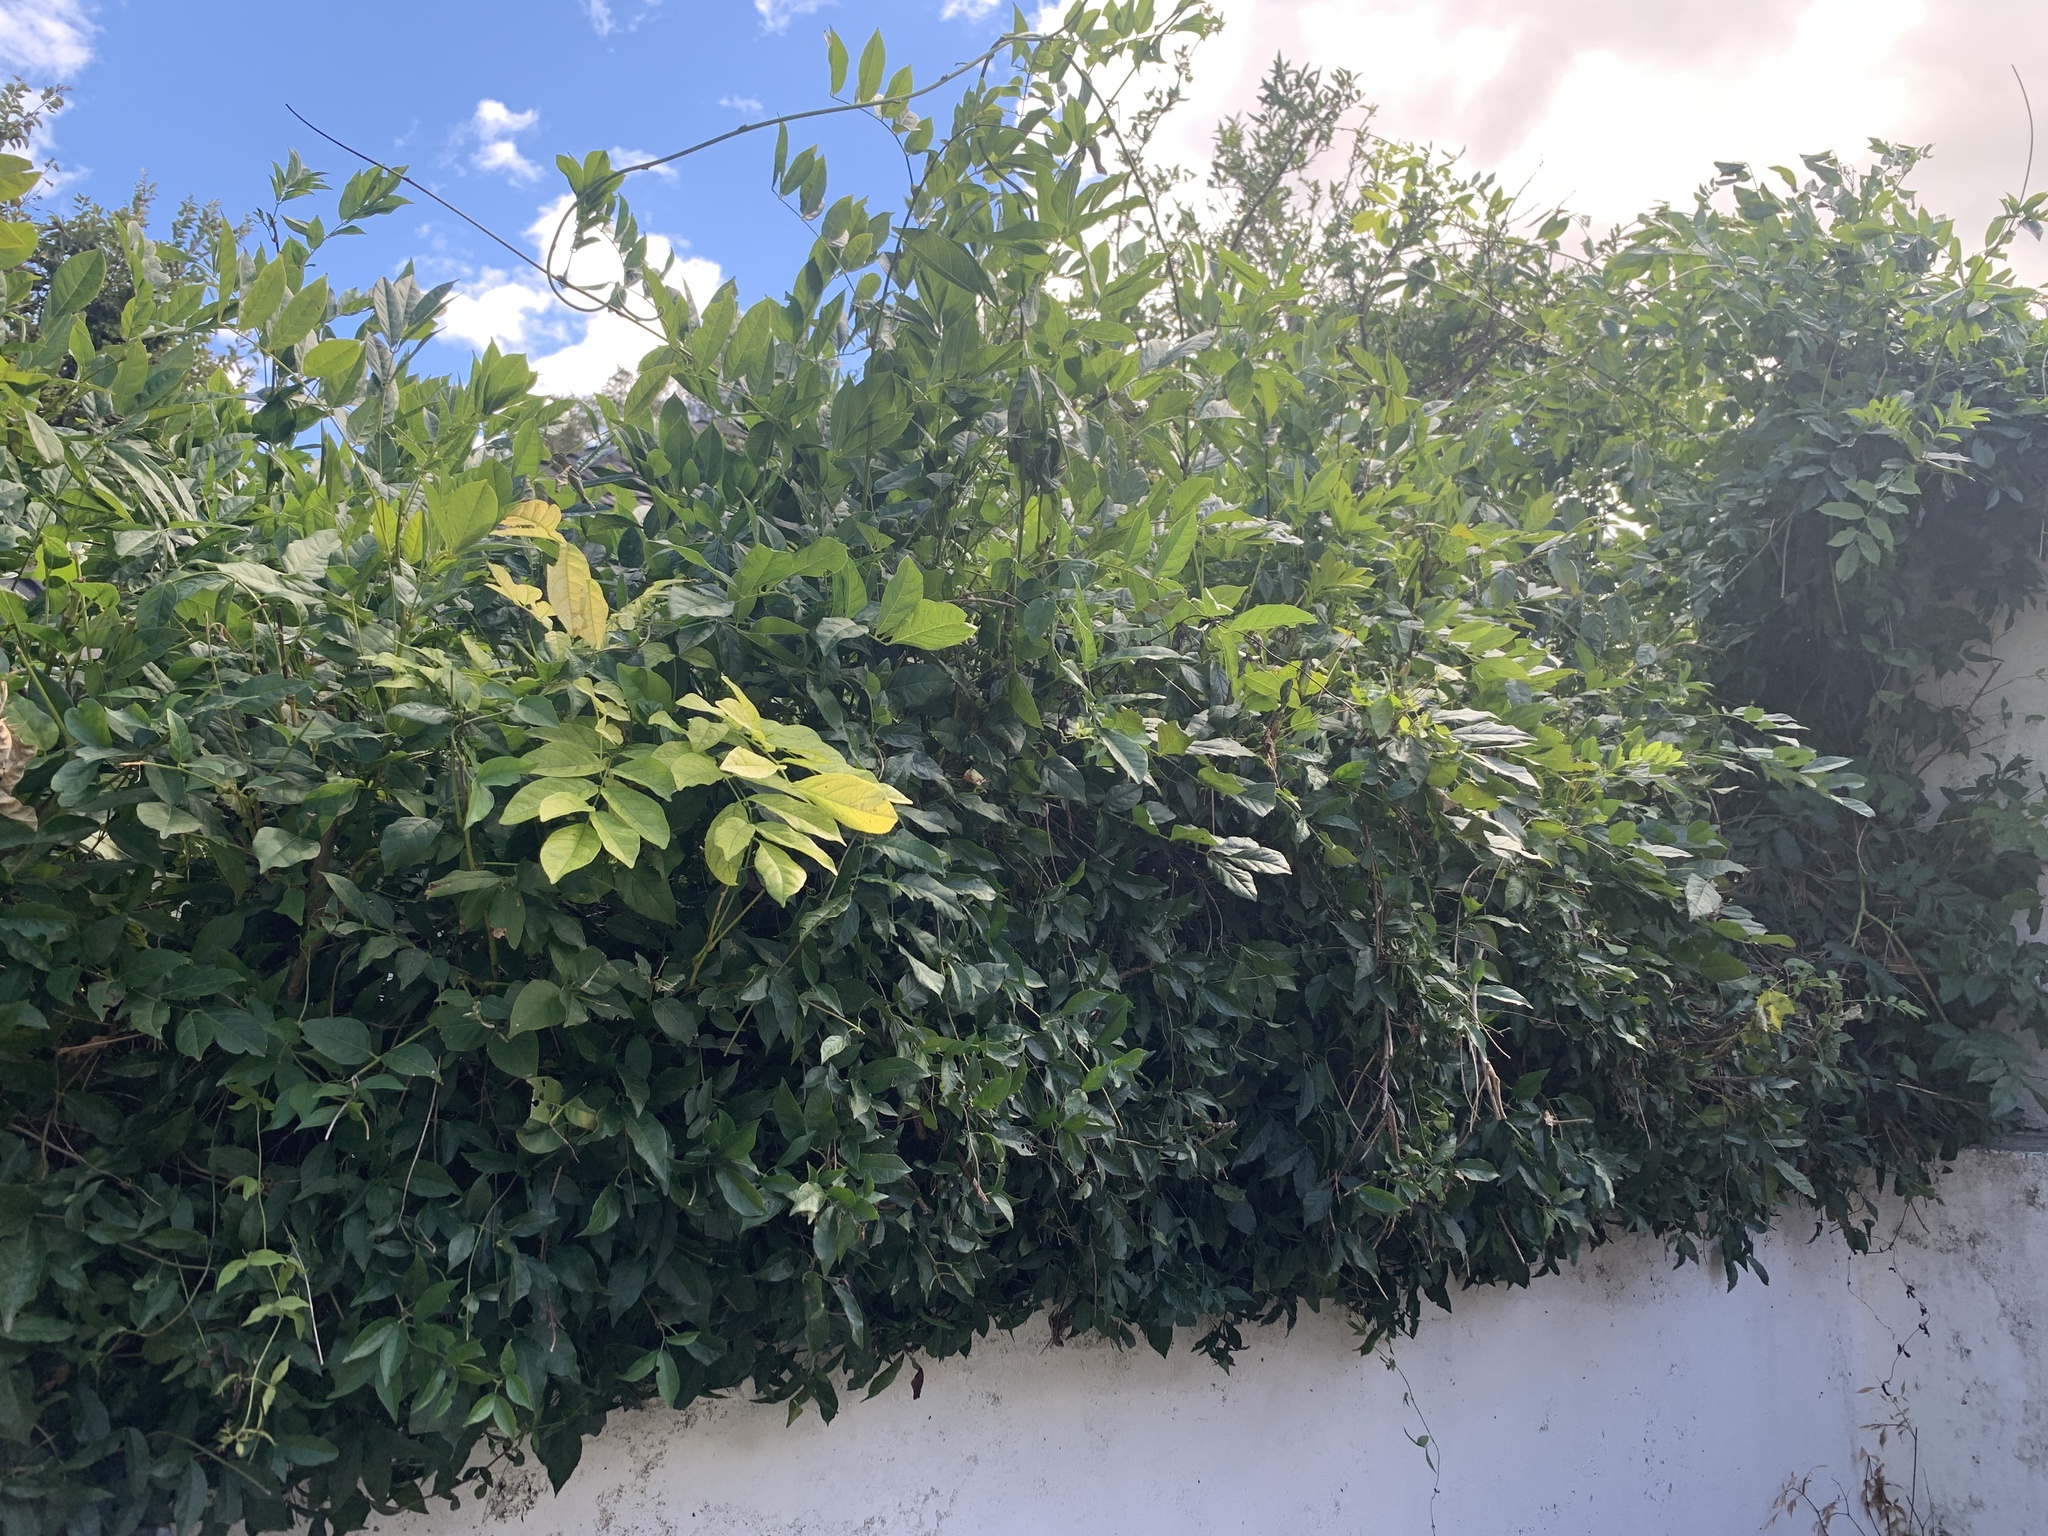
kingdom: Plantae
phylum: Tracheophyta
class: Magnoliopsida
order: Lamiales
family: Bignoniaceae
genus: Dolichandra
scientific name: Dolichandra unguis-cati
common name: Catclaw vine
